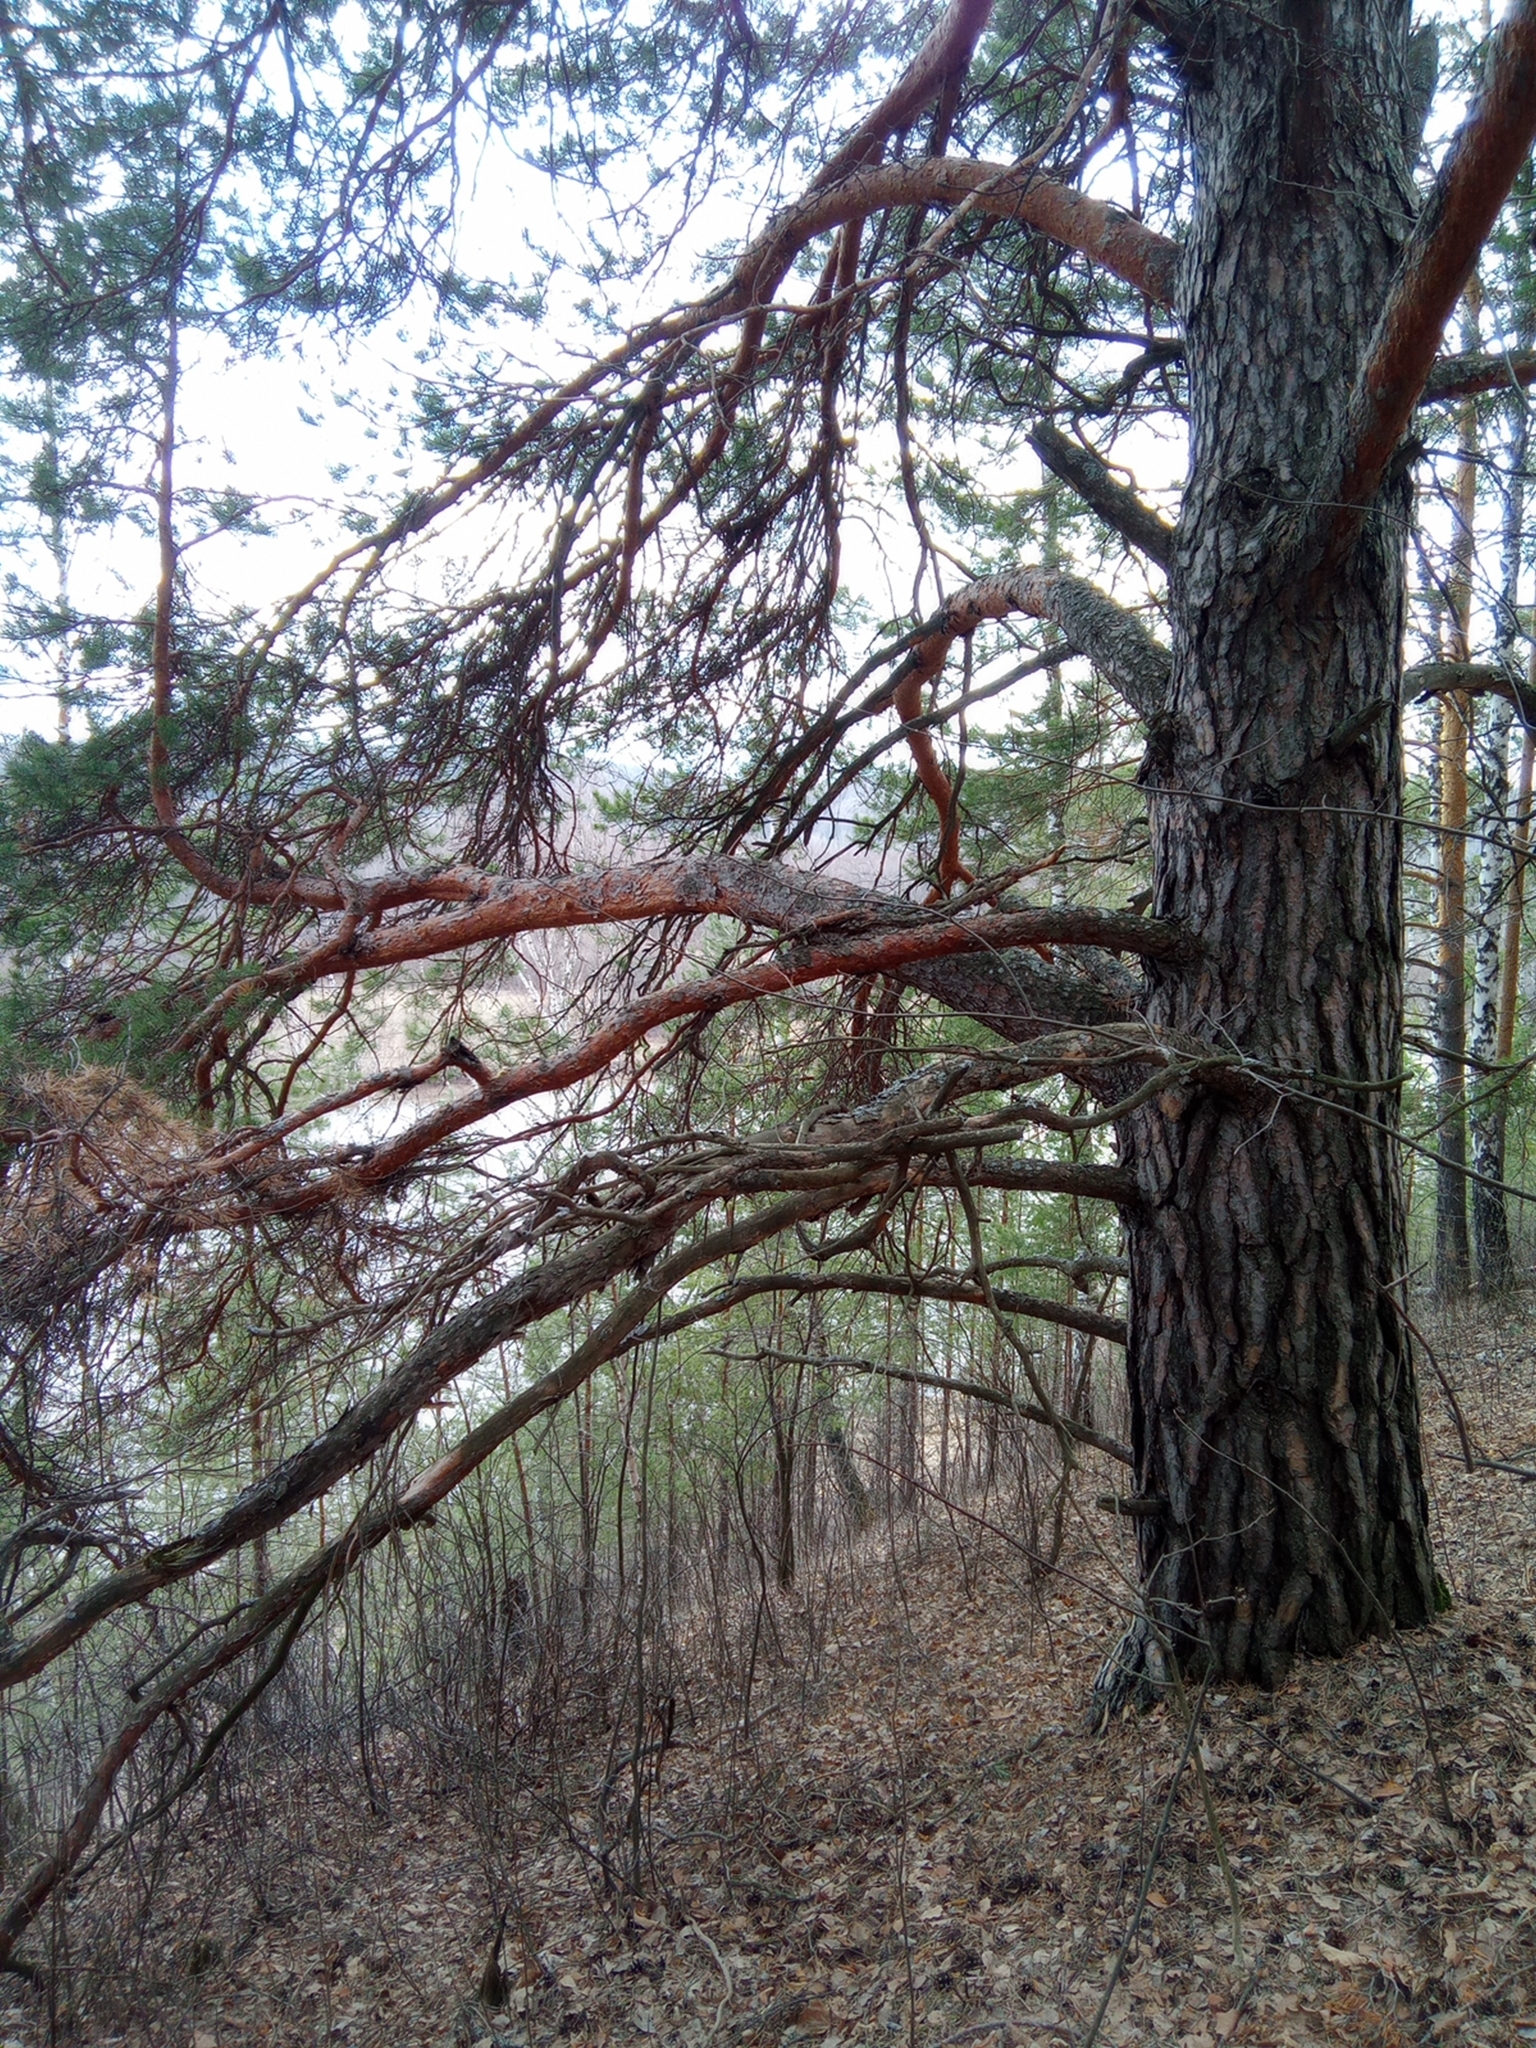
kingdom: Plantae
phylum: Tracheophyta
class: Pinopsida
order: Pinales
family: Pinaceae
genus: Pinus
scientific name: Pinus sylvestris
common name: Scots pine
